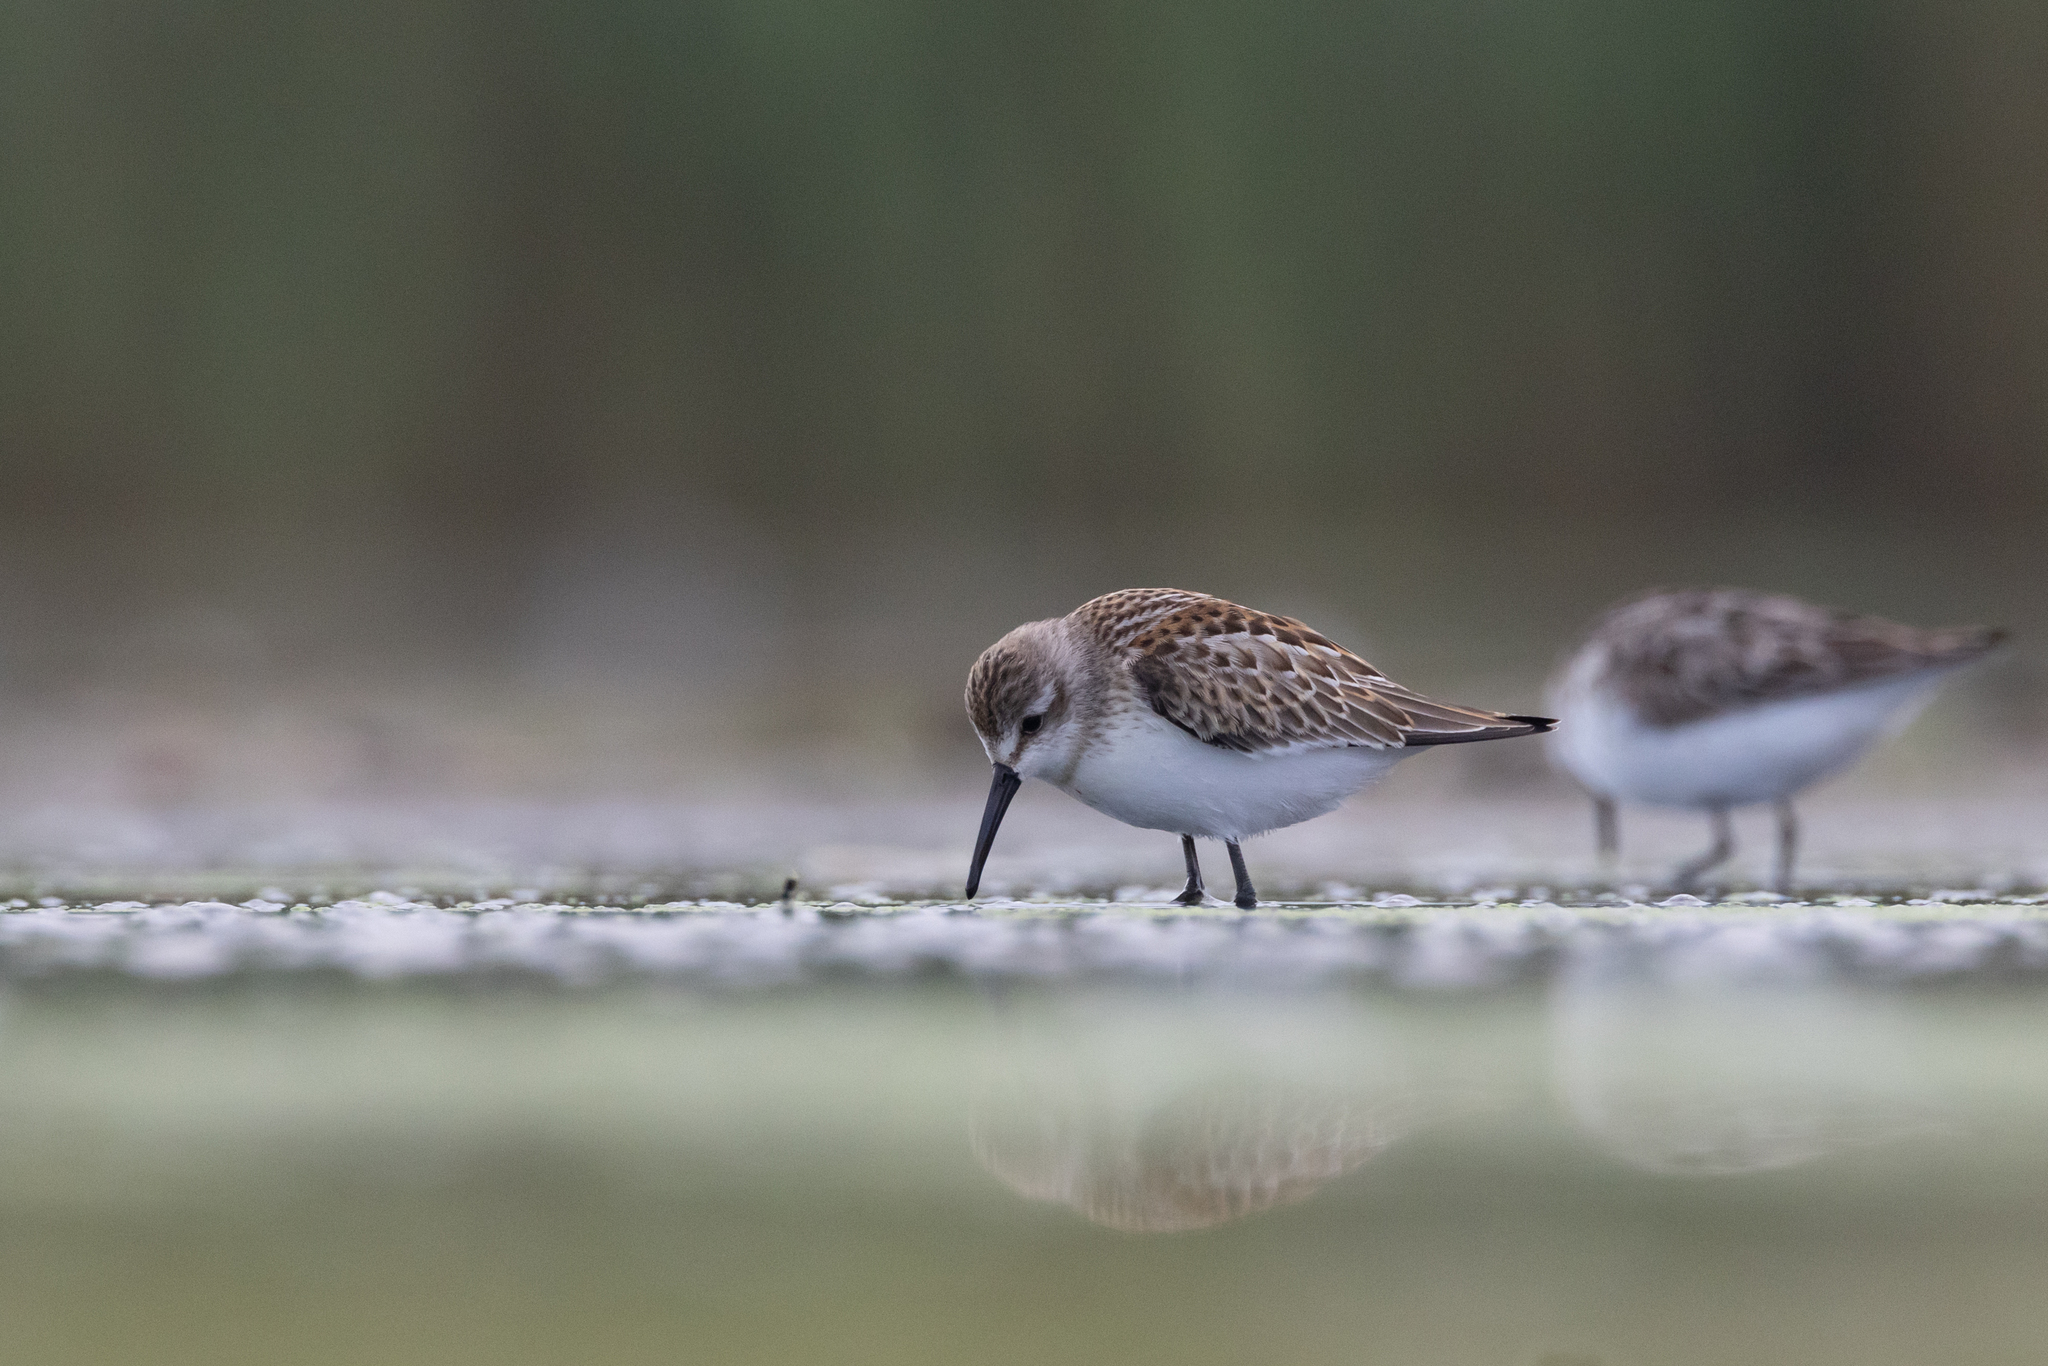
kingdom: Animalia
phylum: Chordata
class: Aves
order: Charadriiformes
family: Scolopacidae
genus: Calidris
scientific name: Calidris mauri
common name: Western sandpiper
